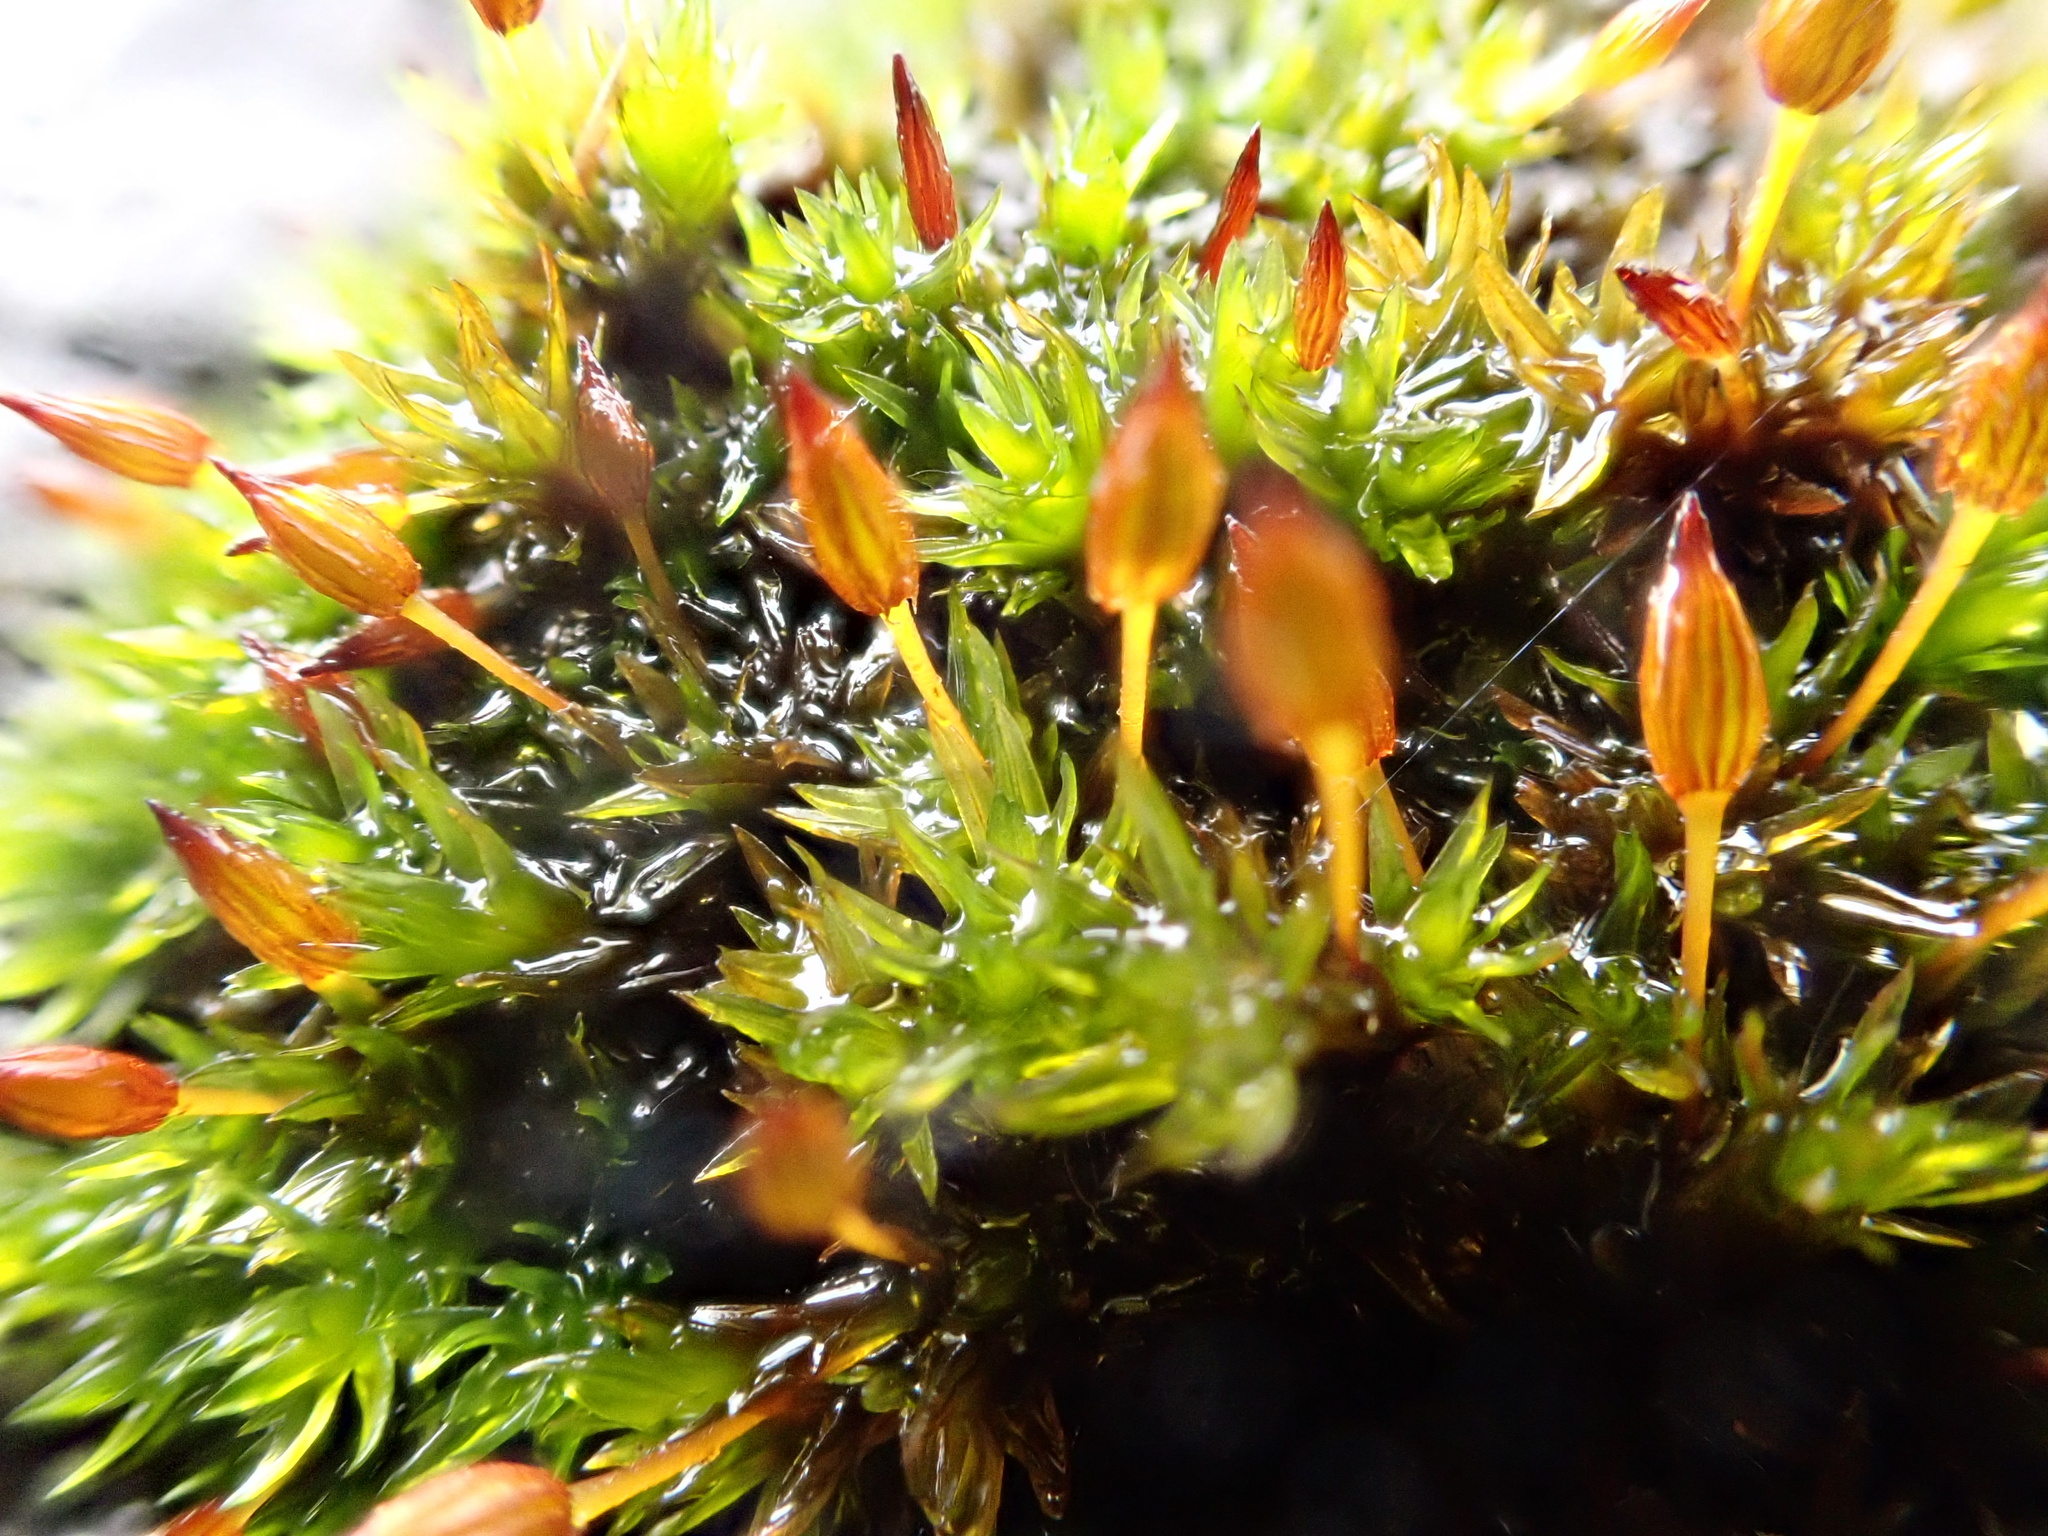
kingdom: Plantae
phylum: Bryophyta
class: Bryopsida
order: Orthotrichales
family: Orthotrichaceae
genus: Orthotrichum
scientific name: Orthotrichum anomalum
